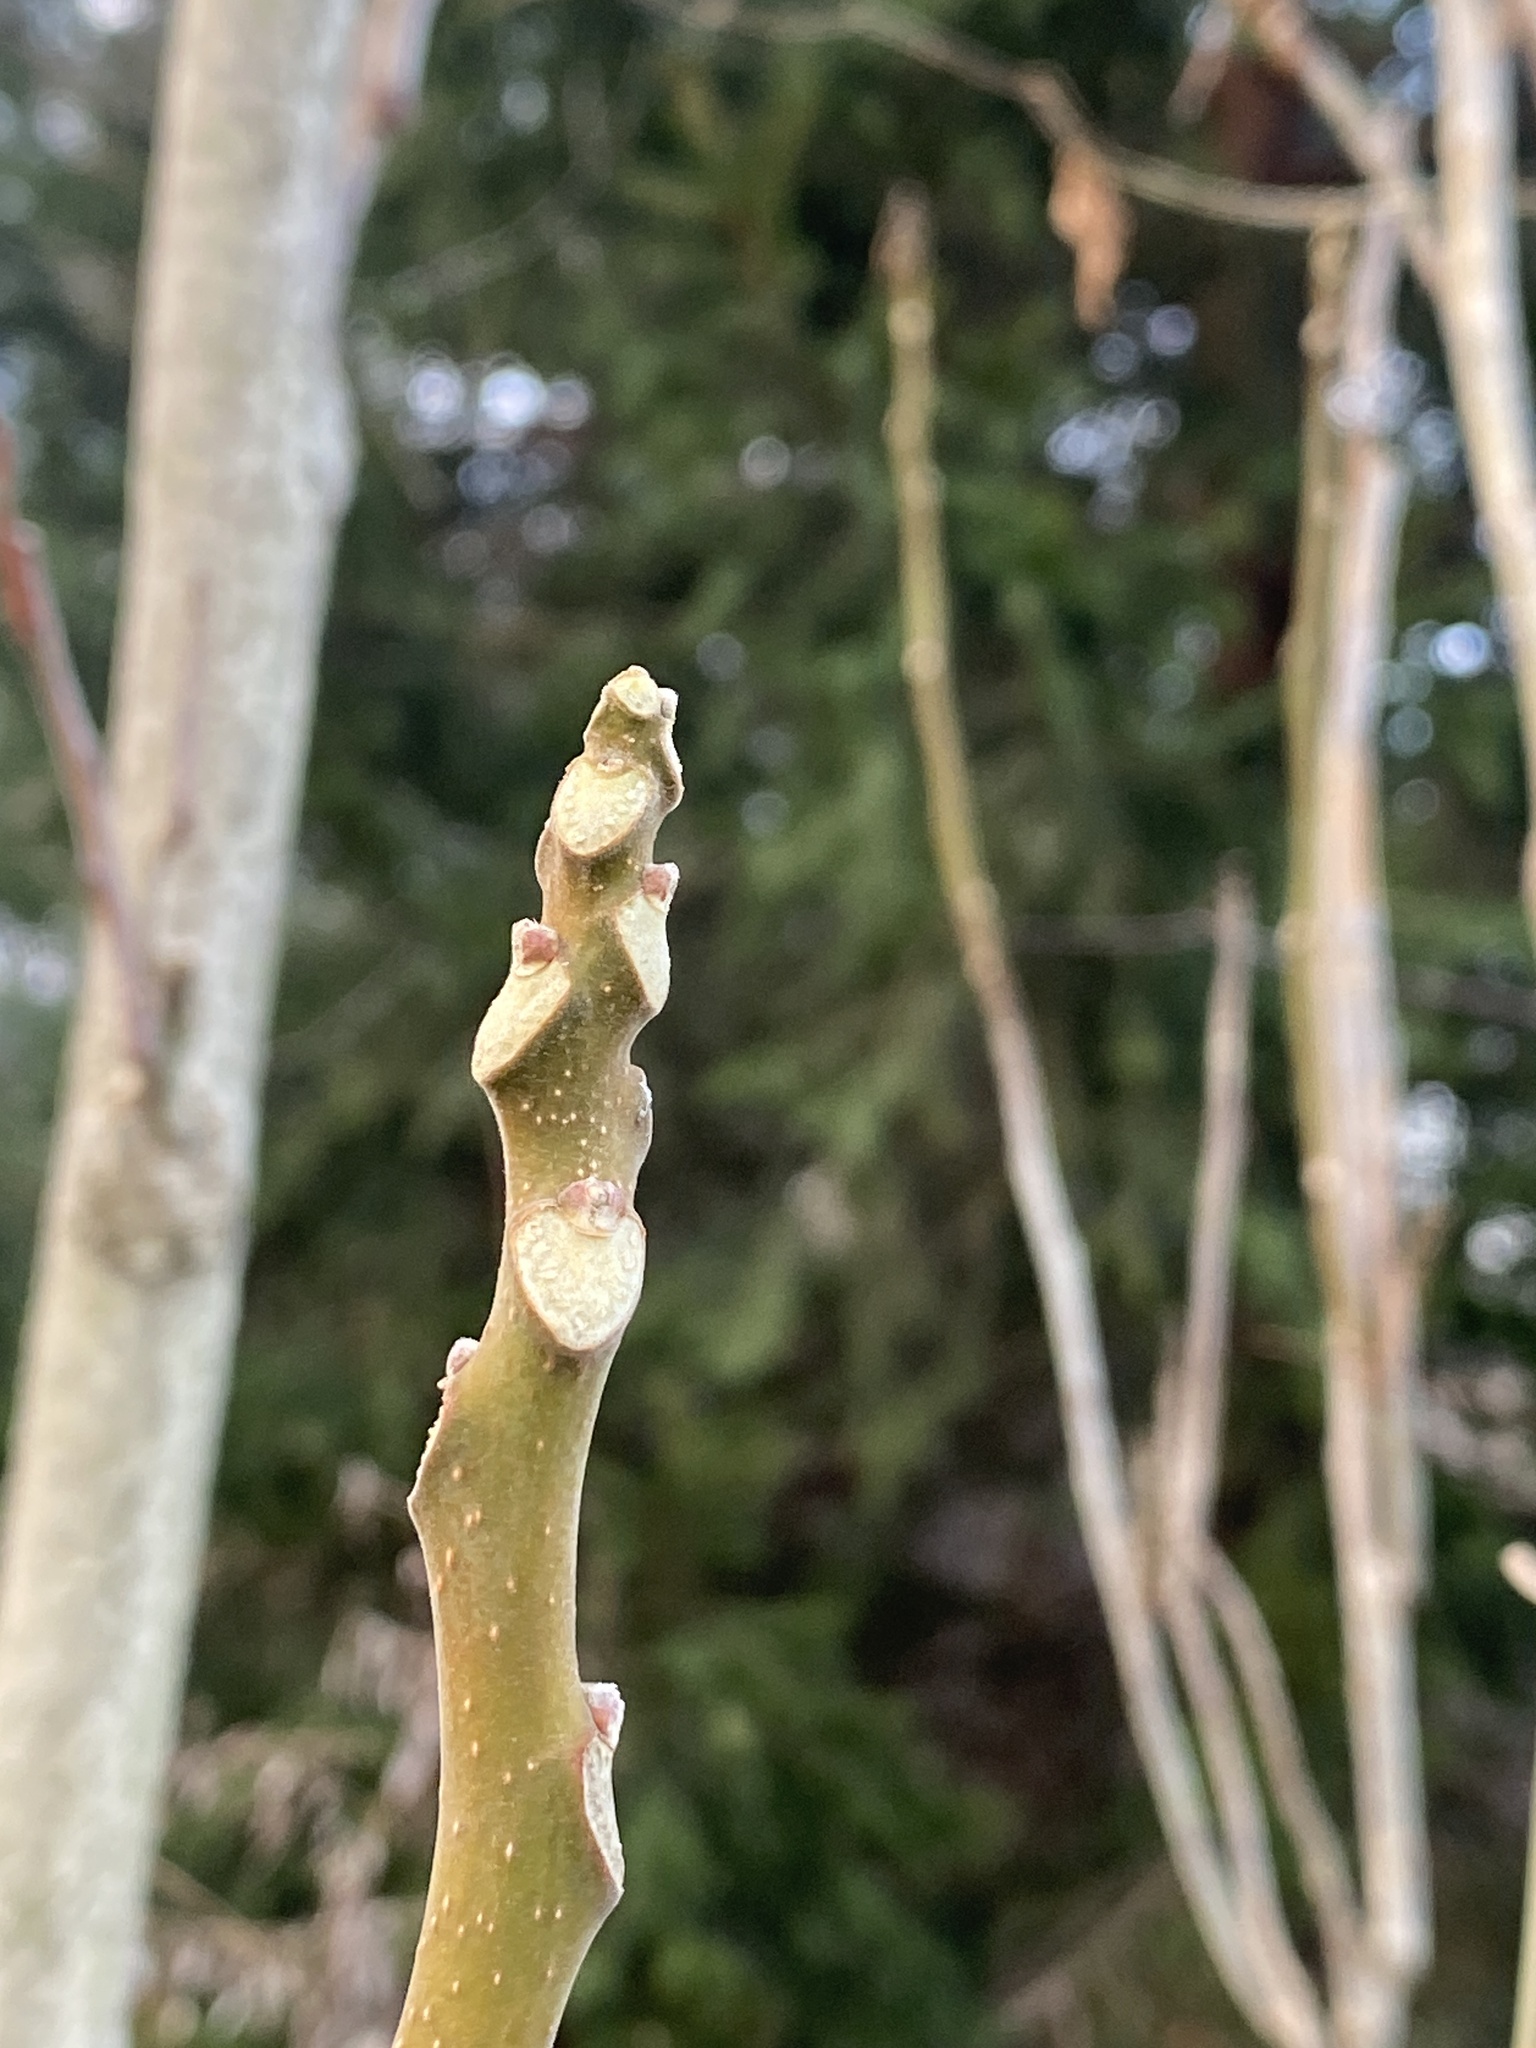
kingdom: Plantae
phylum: Tracheophyta
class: Magnoliopsida
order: Sapindales
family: Simaroubaceae
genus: Ailanthus
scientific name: Ailanthus altissima
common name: Tree-of-heaven
